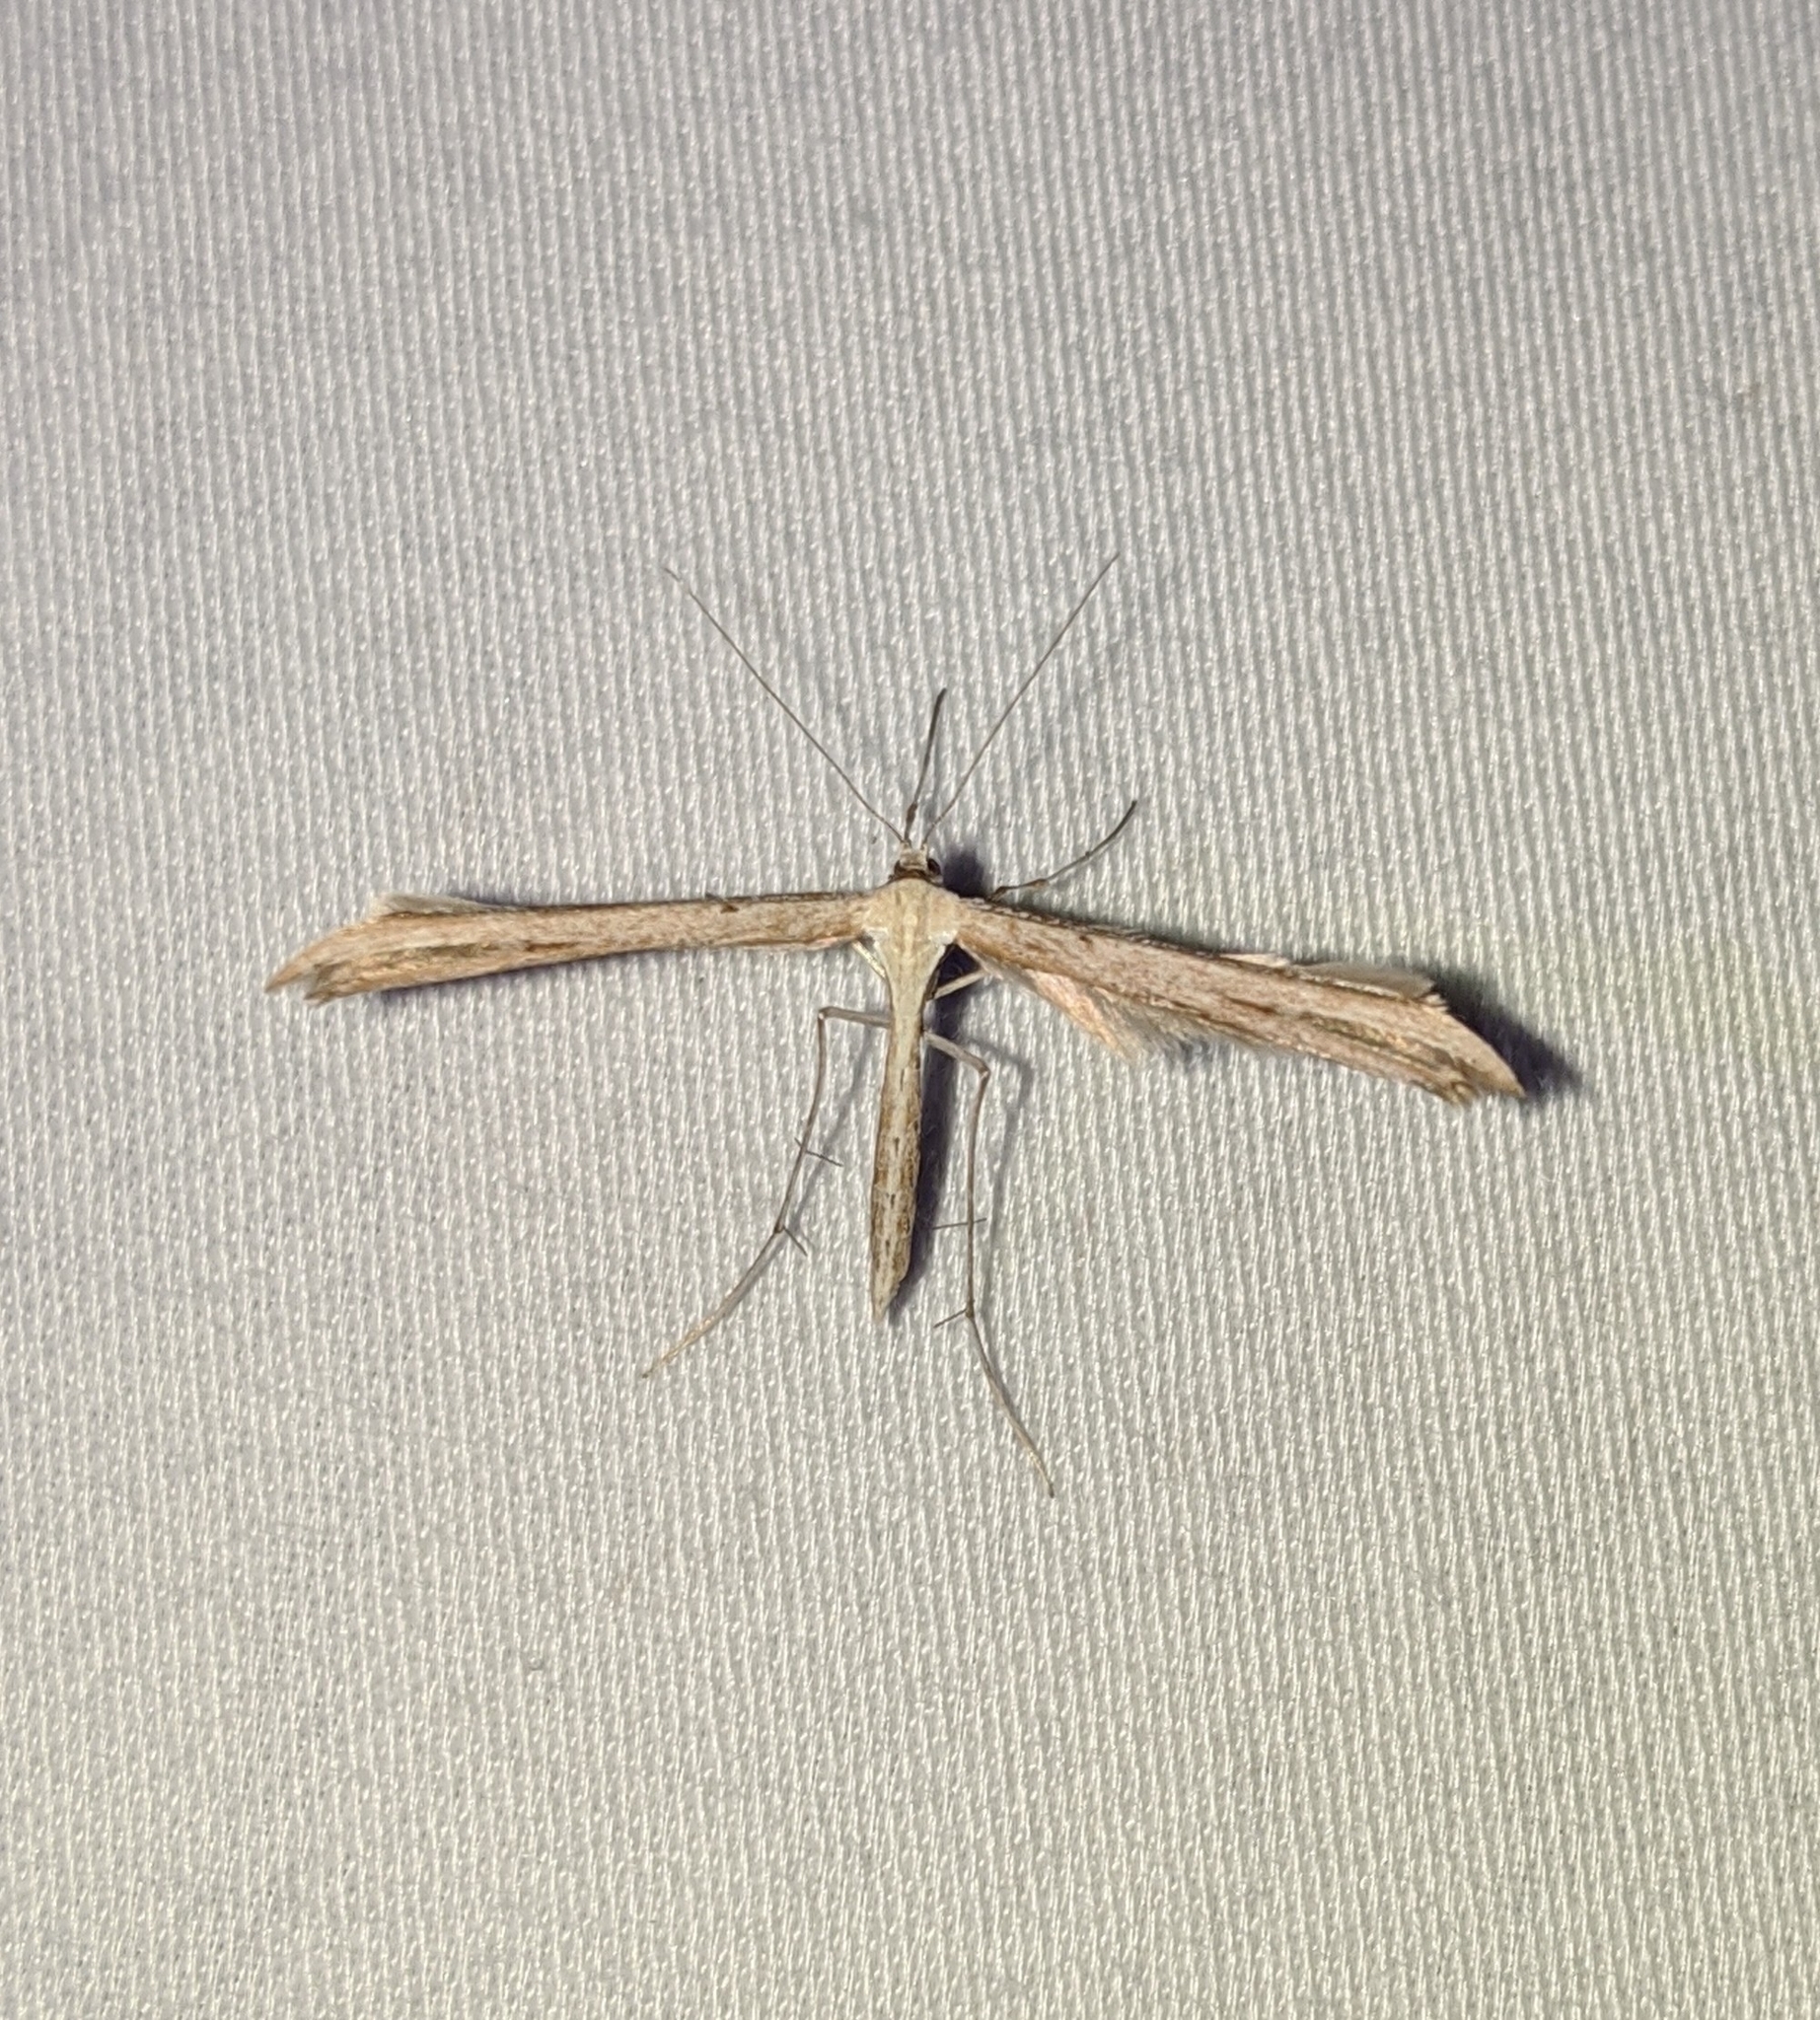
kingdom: Animalia
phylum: Arthropoda
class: Insecta
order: Lepidoptera
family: Pterophoridae
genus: Emmelina
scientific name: Emmelina monodactyla
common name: Common plume
